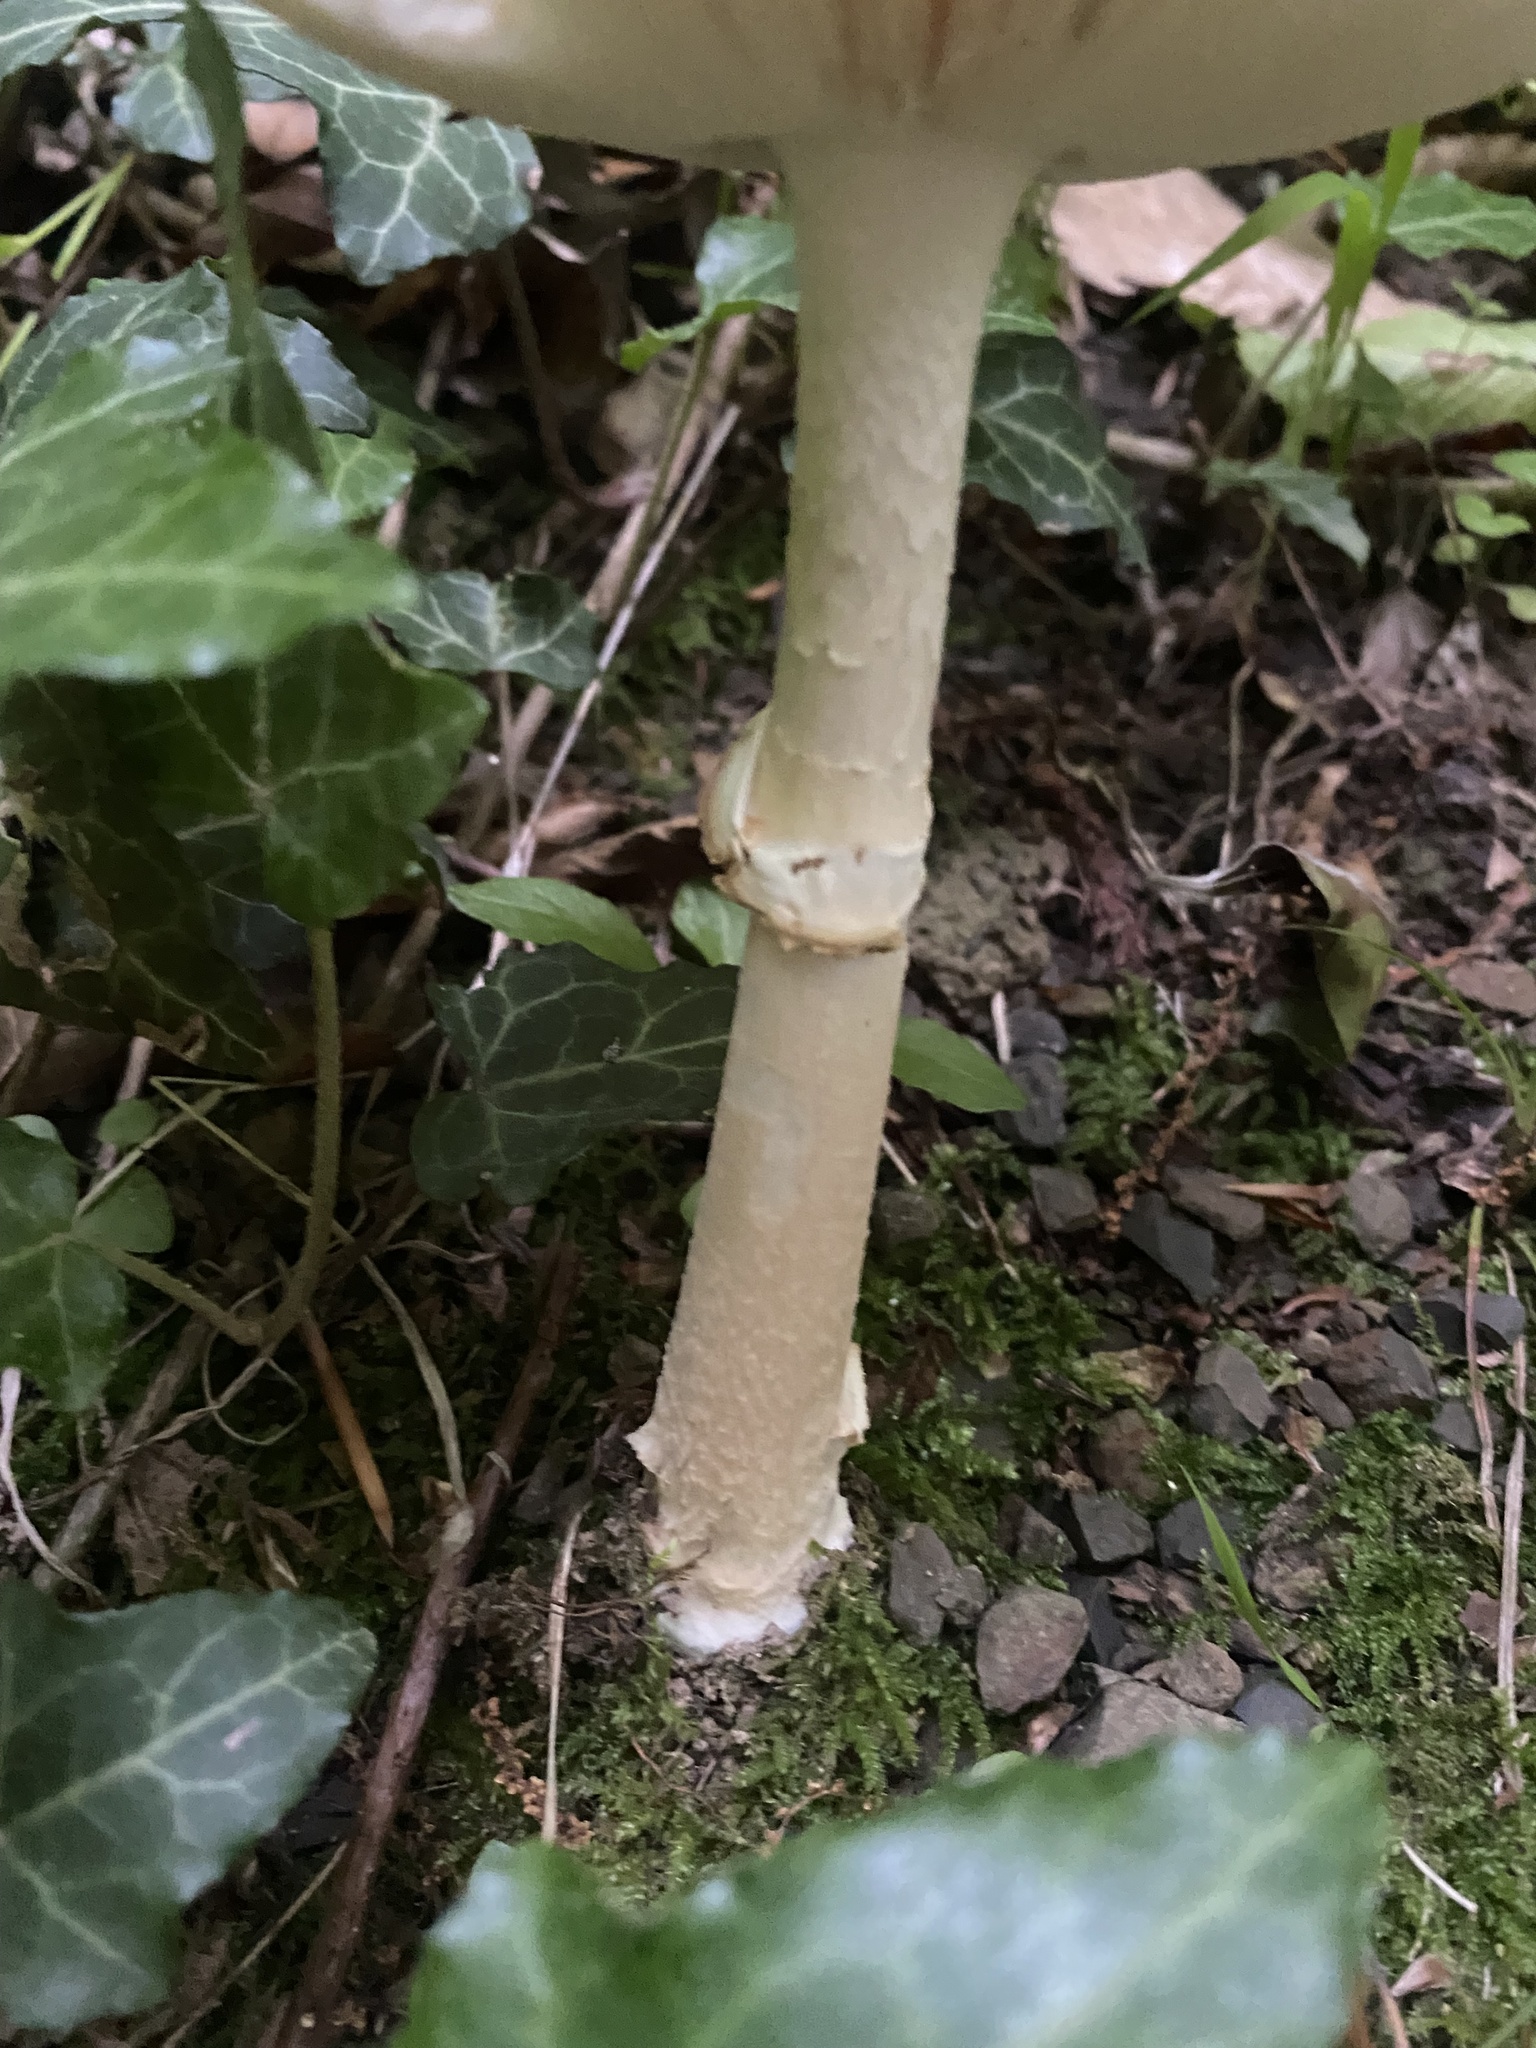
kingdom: Fungi
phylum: Basidiomycota
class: Agaricomycetes
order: Agaricales
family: Amanitaceae
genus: Amanita
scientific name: Amanita citrina
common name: False death-cap
